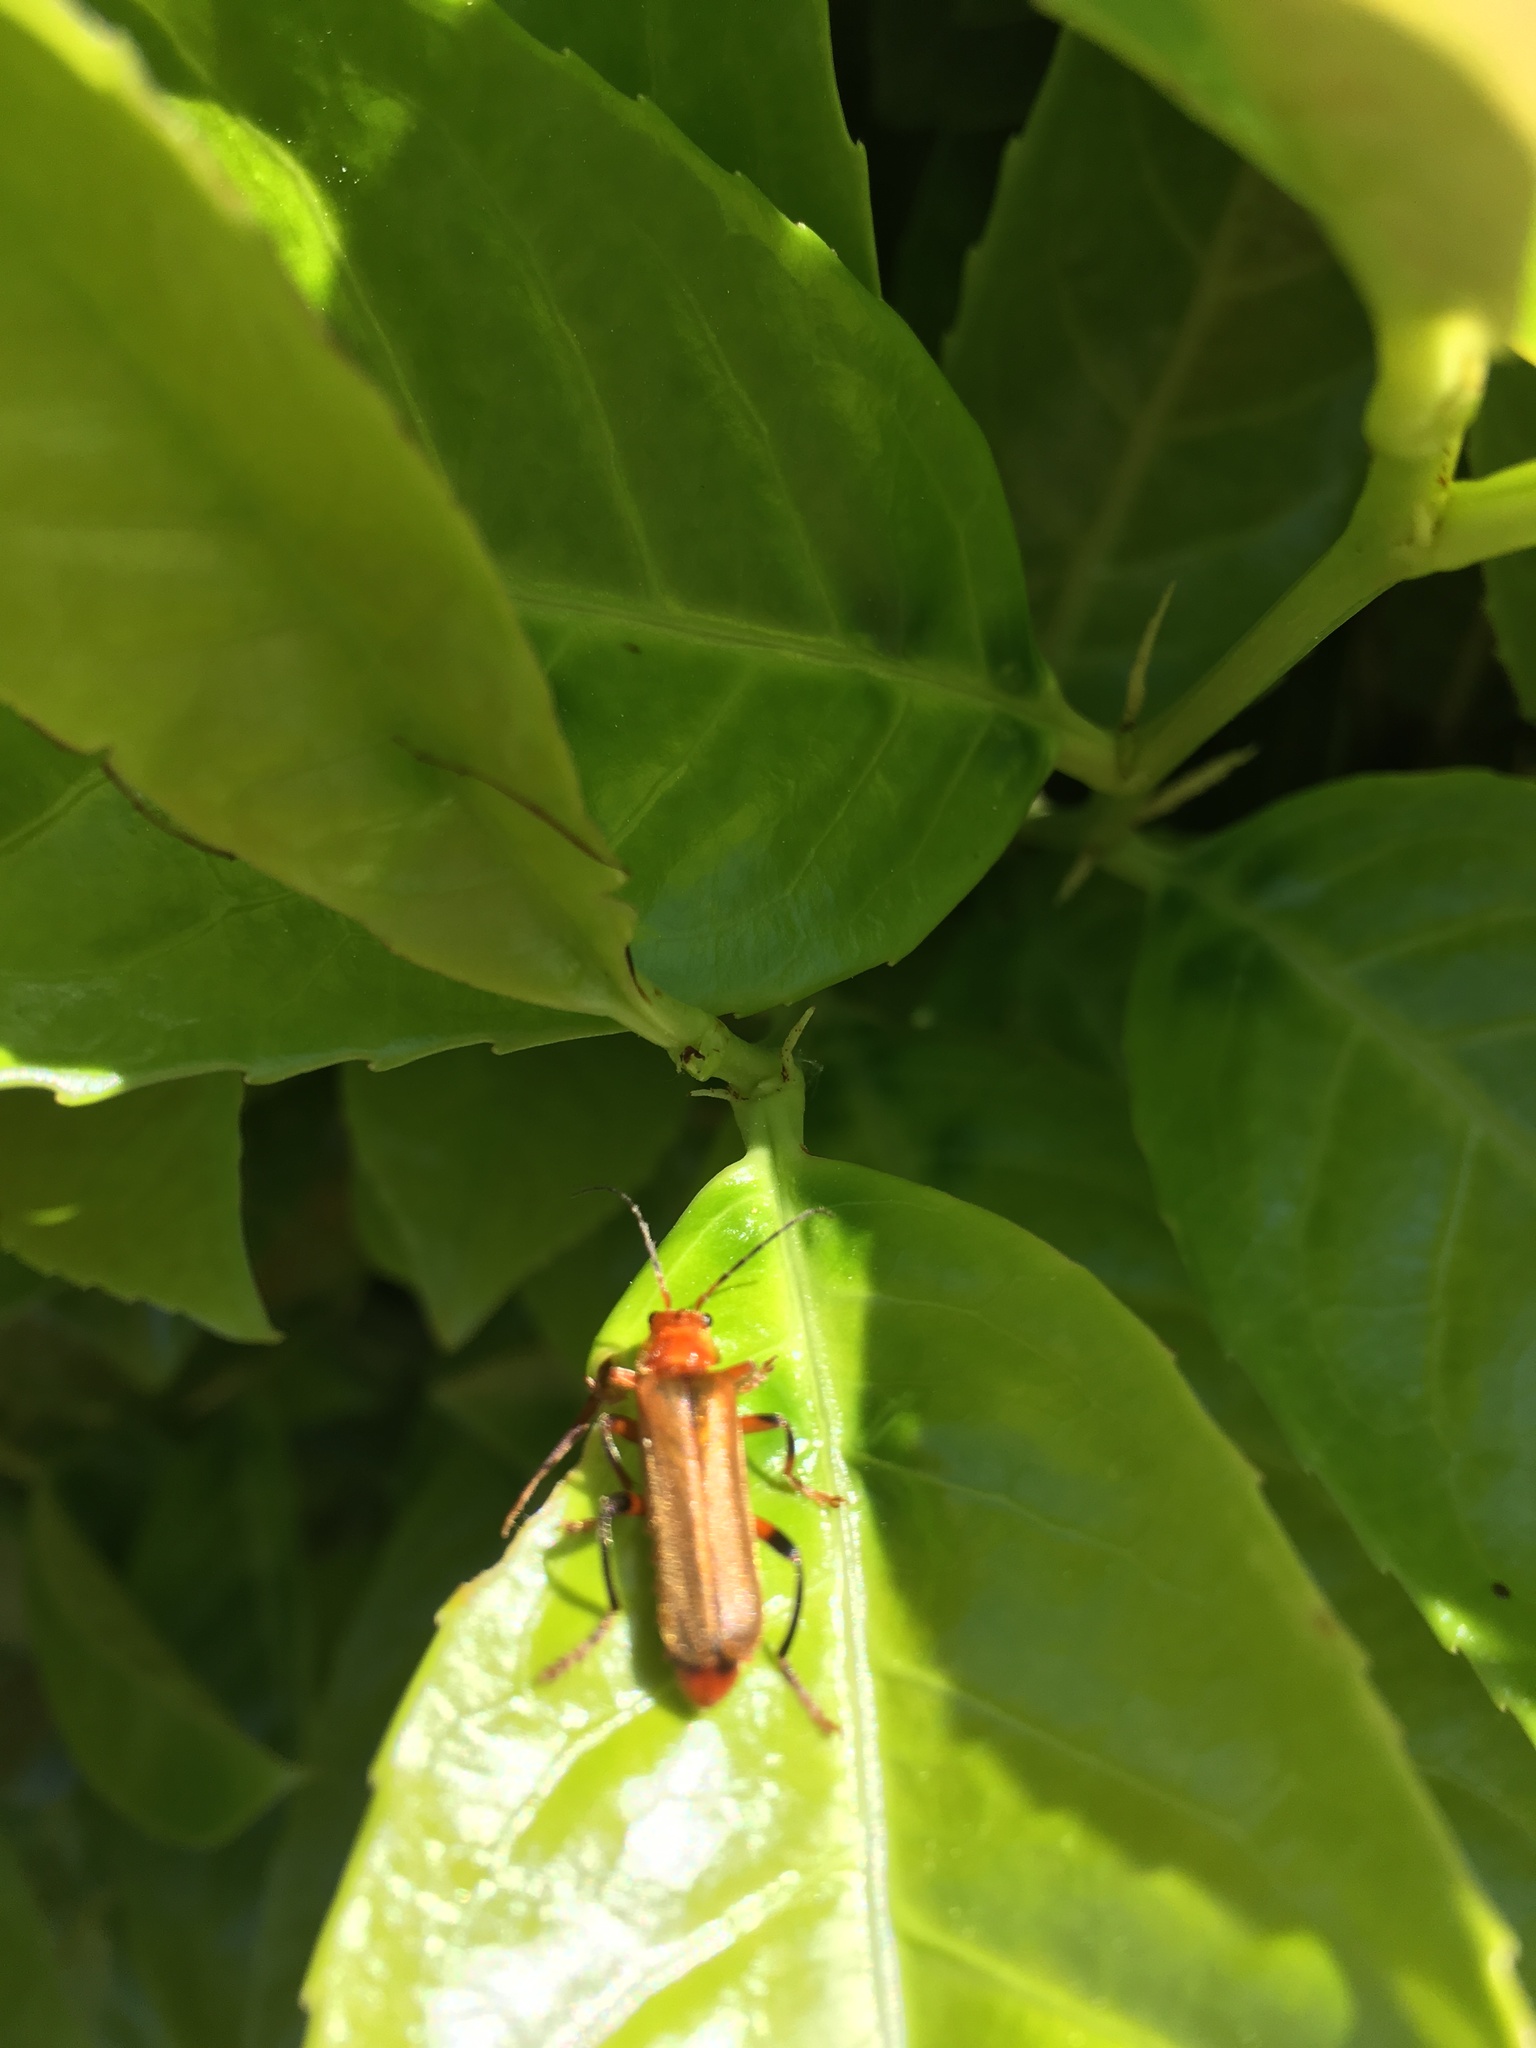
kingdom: Animalia
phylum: Arthropoda
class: Insecta
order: Coleoptera
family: Cantharidae
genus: Cantharis
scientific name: Cantharis livida
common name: Livid soldier beetle
